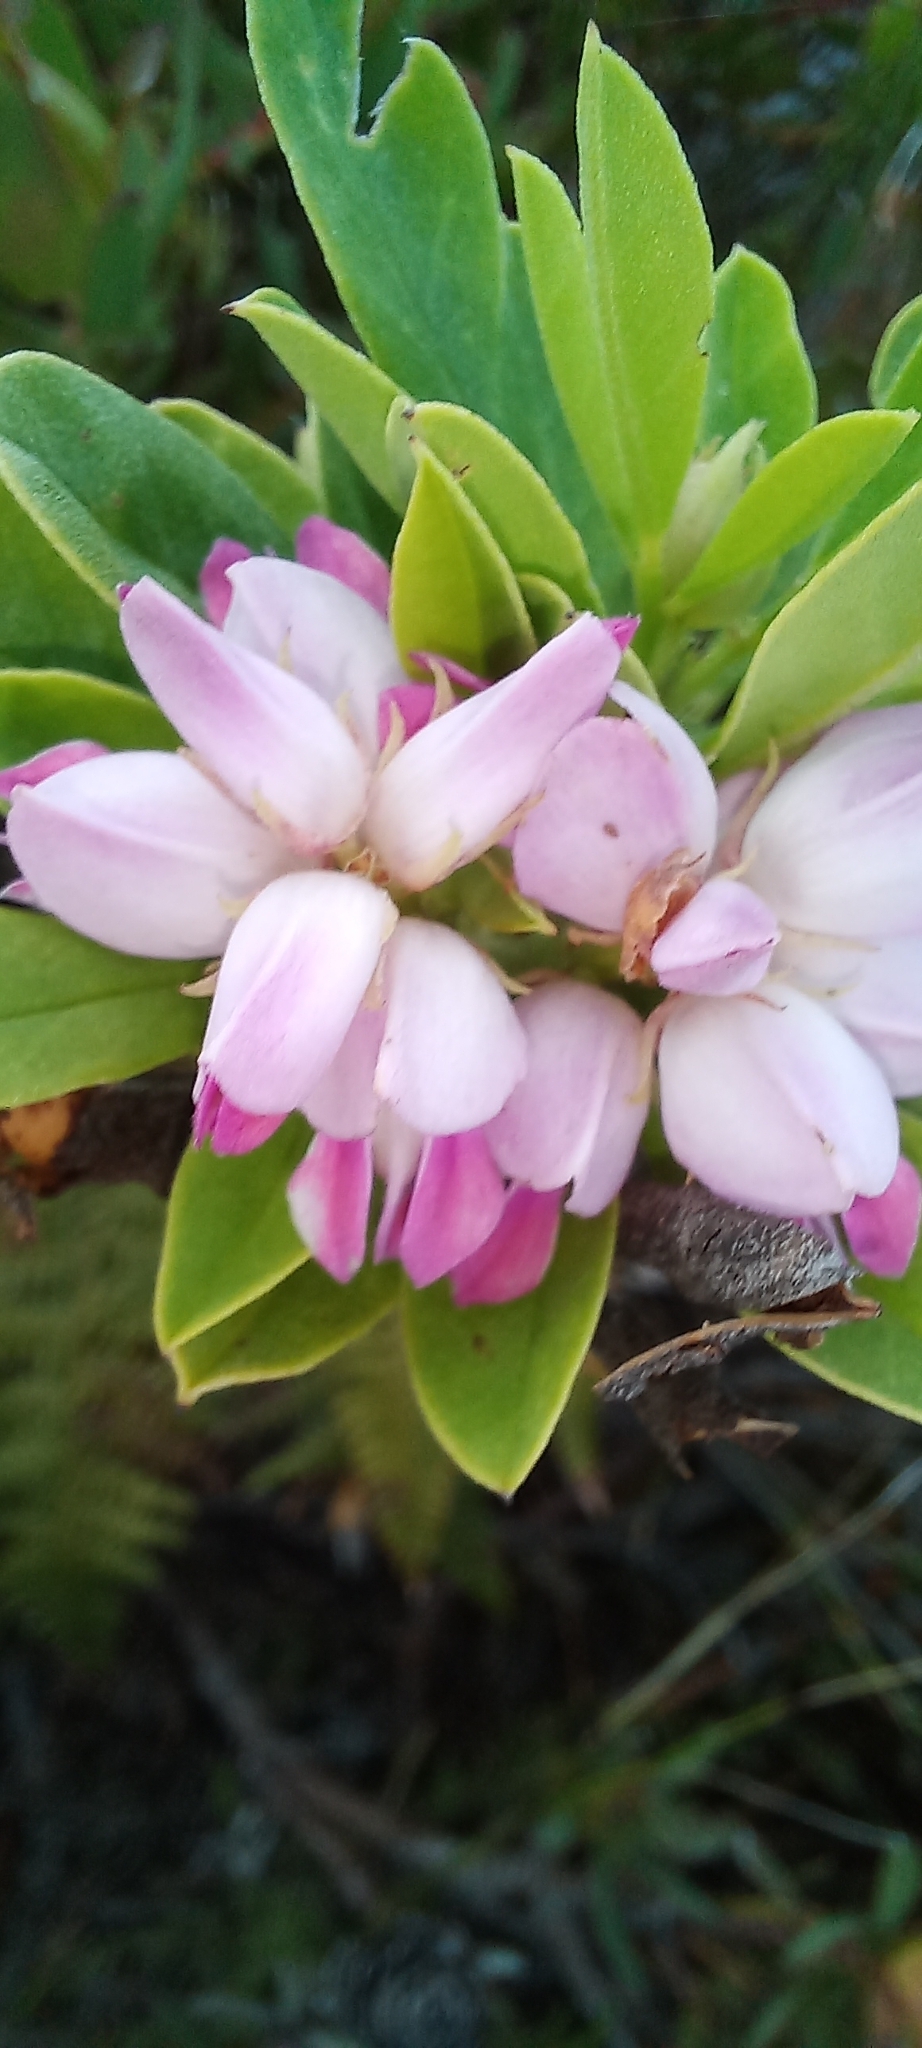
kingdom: Plantae
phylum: Tracheophyta
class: Magnoliopsida
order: Fabales
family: Fabaceae
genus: Indigofera
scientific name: Indigofera cytisoides
